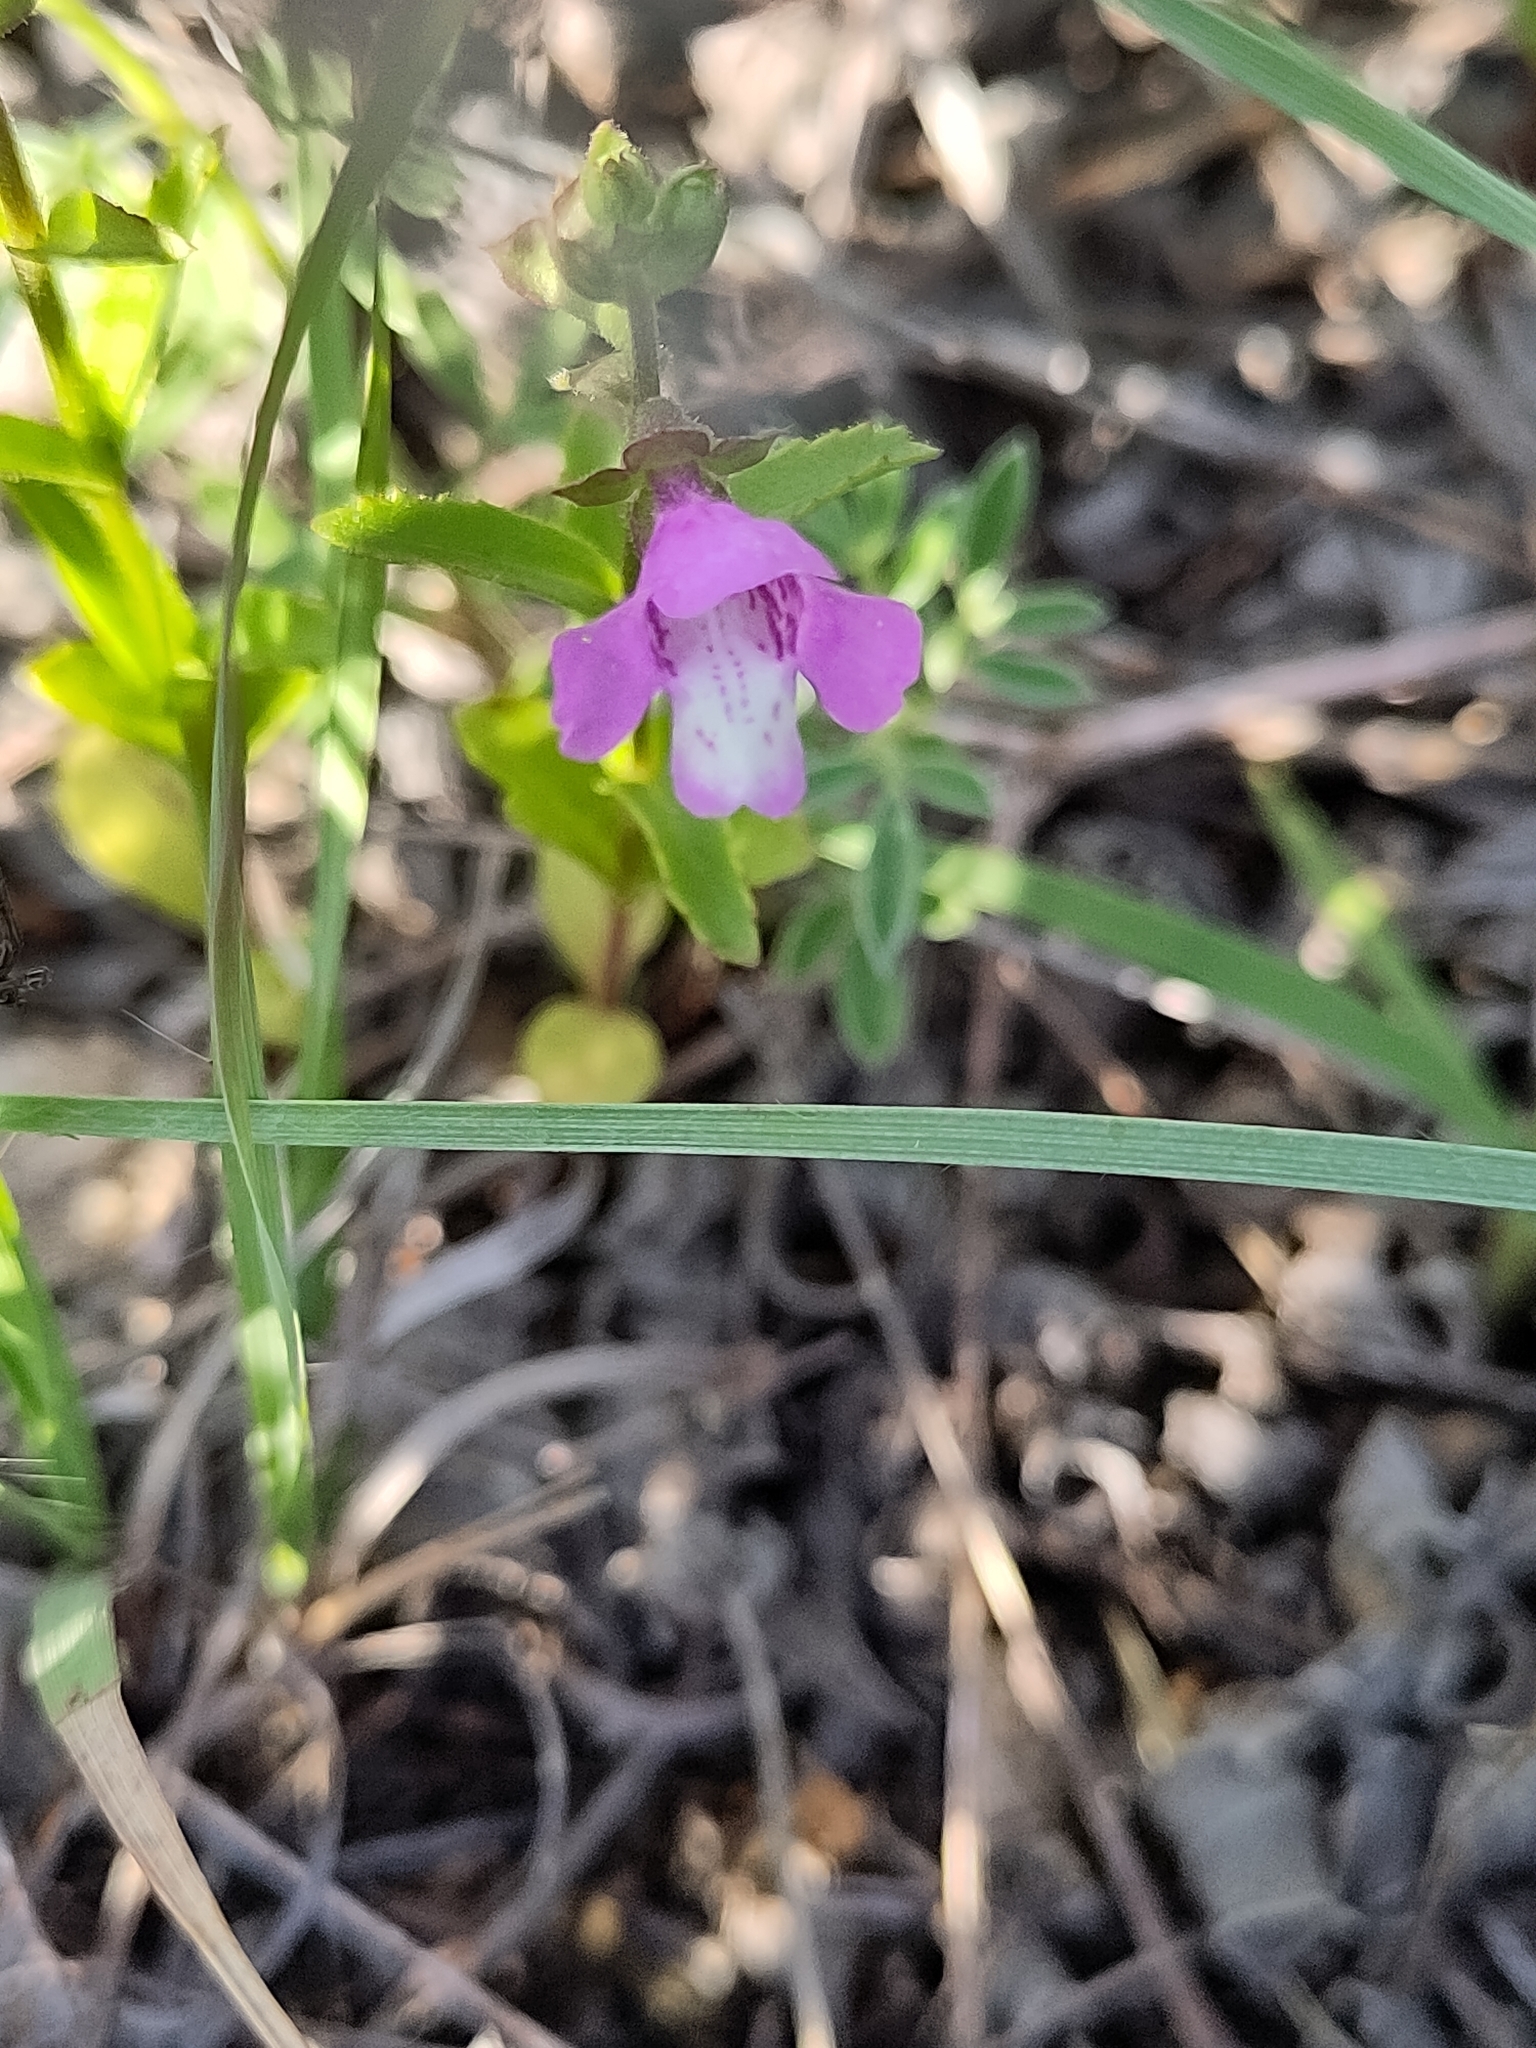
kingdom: Plantae
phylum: Tracheophyta
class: Magnoliopsida
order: Lamiales
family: Lamiaceae
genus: Warnockia
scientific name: Warnockia scutellarioides
